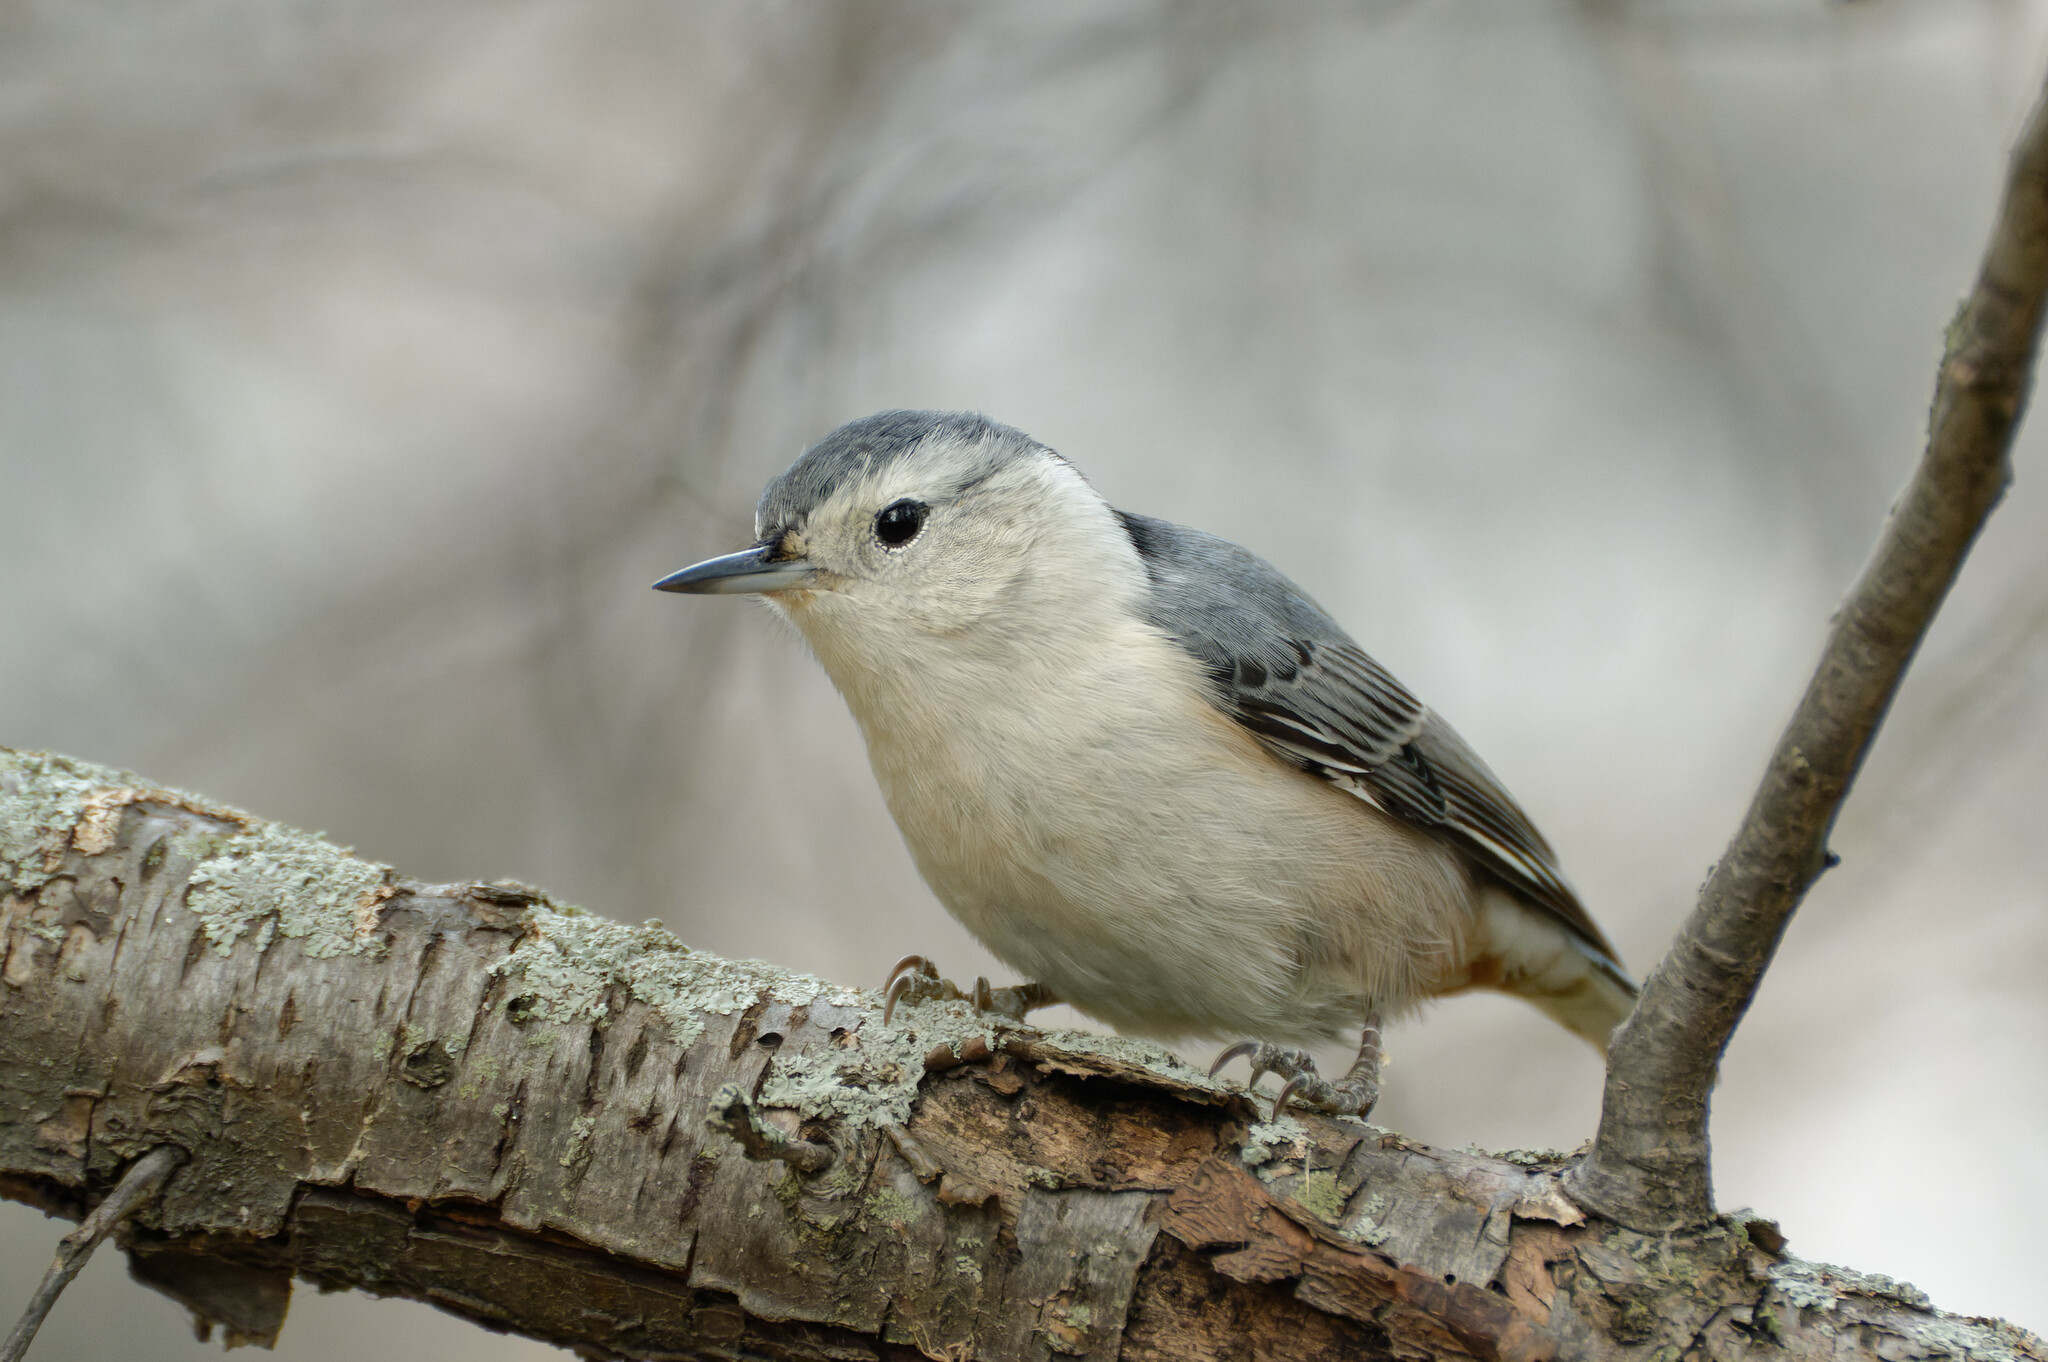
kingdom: Animalia
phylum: Chordata
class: Aves
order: Passeriformes
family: Sittidae
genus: Sitta
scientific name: Sitta carolinensis
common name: White-breasted nuthatch
